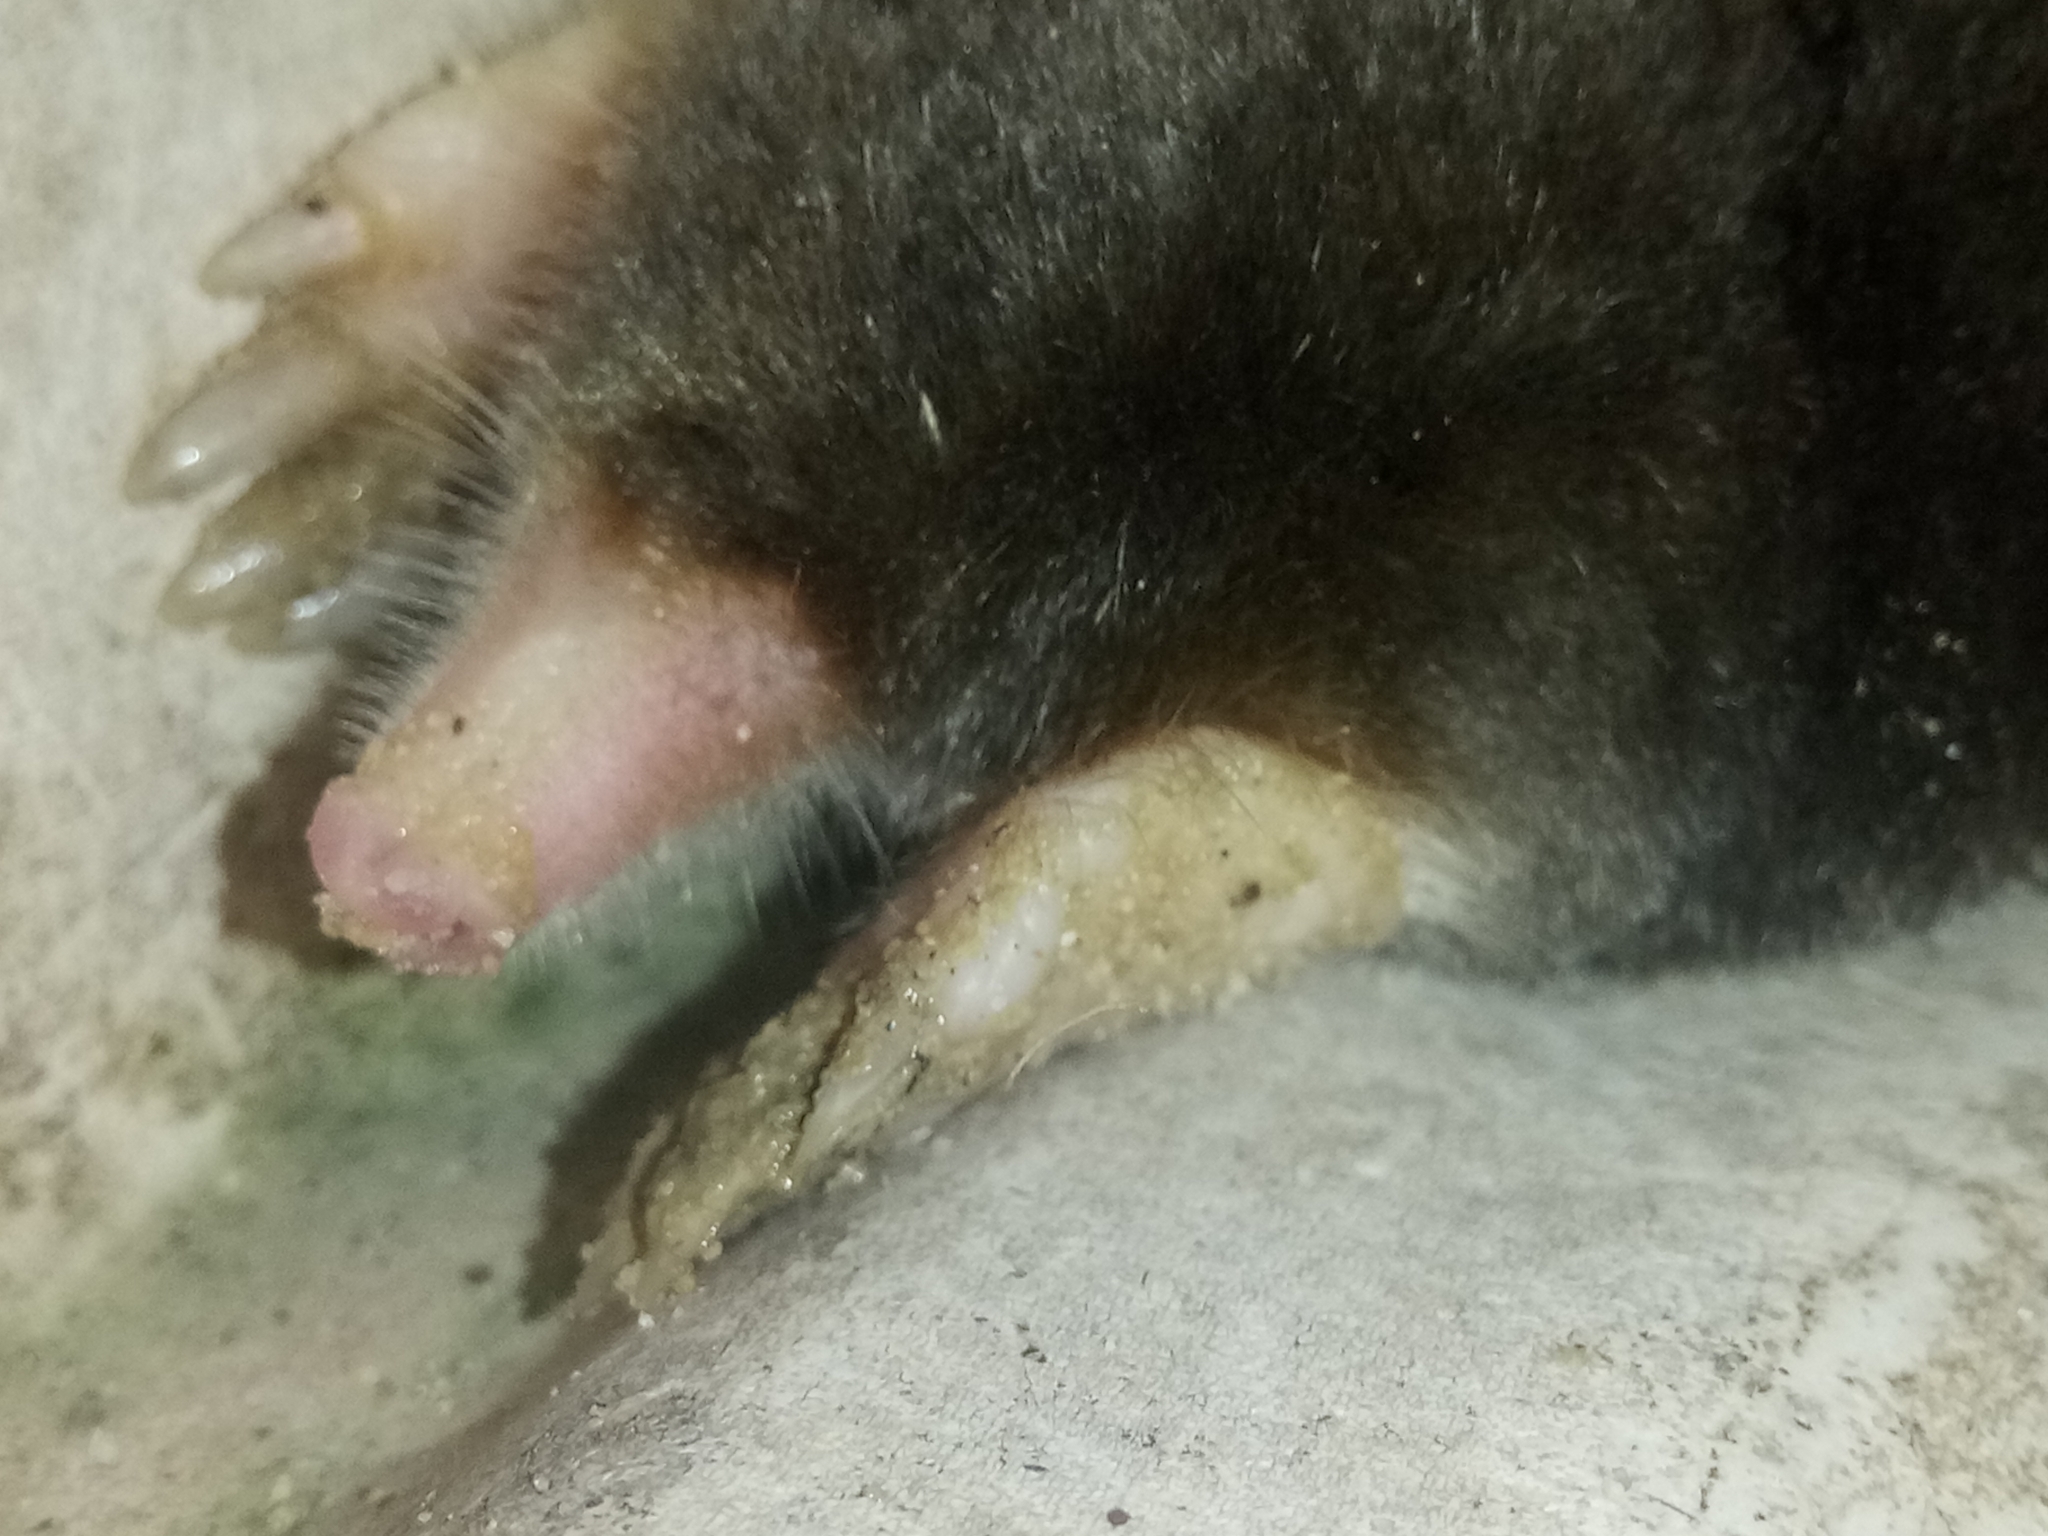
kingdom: Animalia
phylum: Chordata
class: Mammalia
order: Soricomorpha
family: Talpidae
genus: Parascaptor
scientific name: Parascaptor leucura
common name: White-tailed mole
